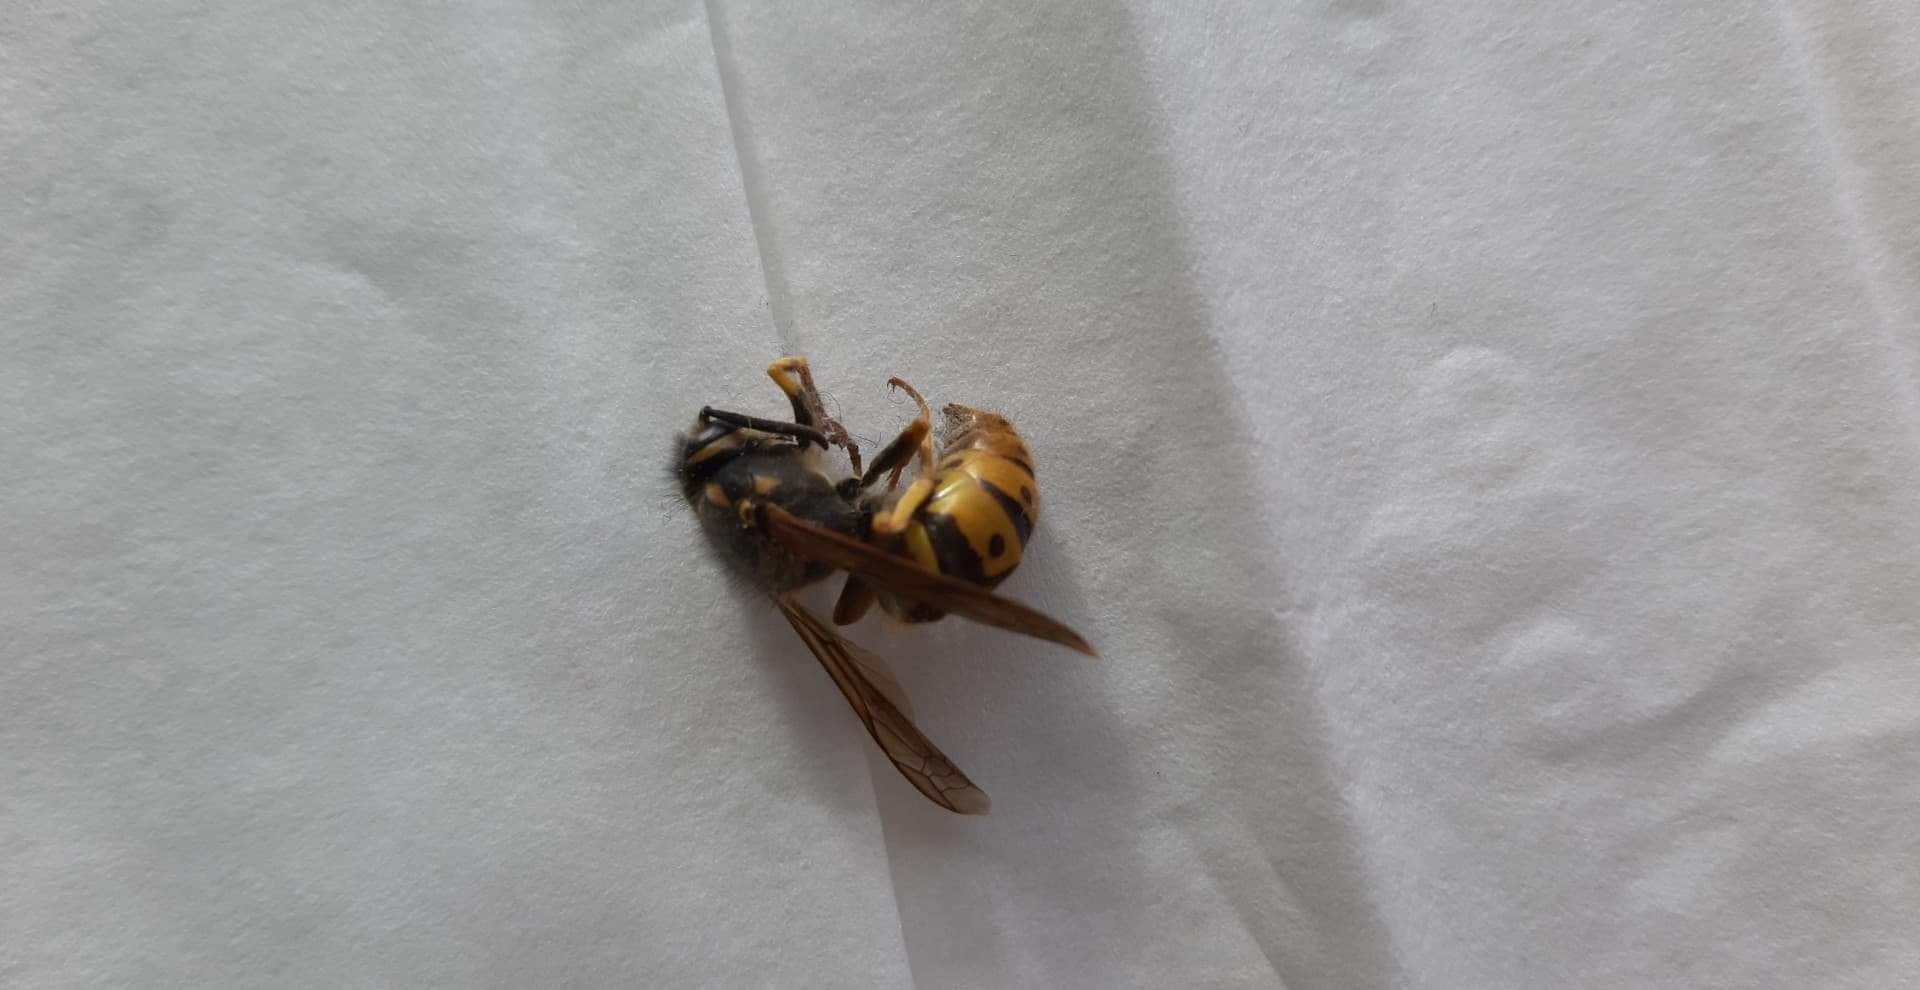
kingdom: Animalia
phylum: Arthropoda
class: Insecta
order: Hymenoptera
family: Vespidae
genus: Vespula
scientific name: Vespula germanica
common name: German wasp
